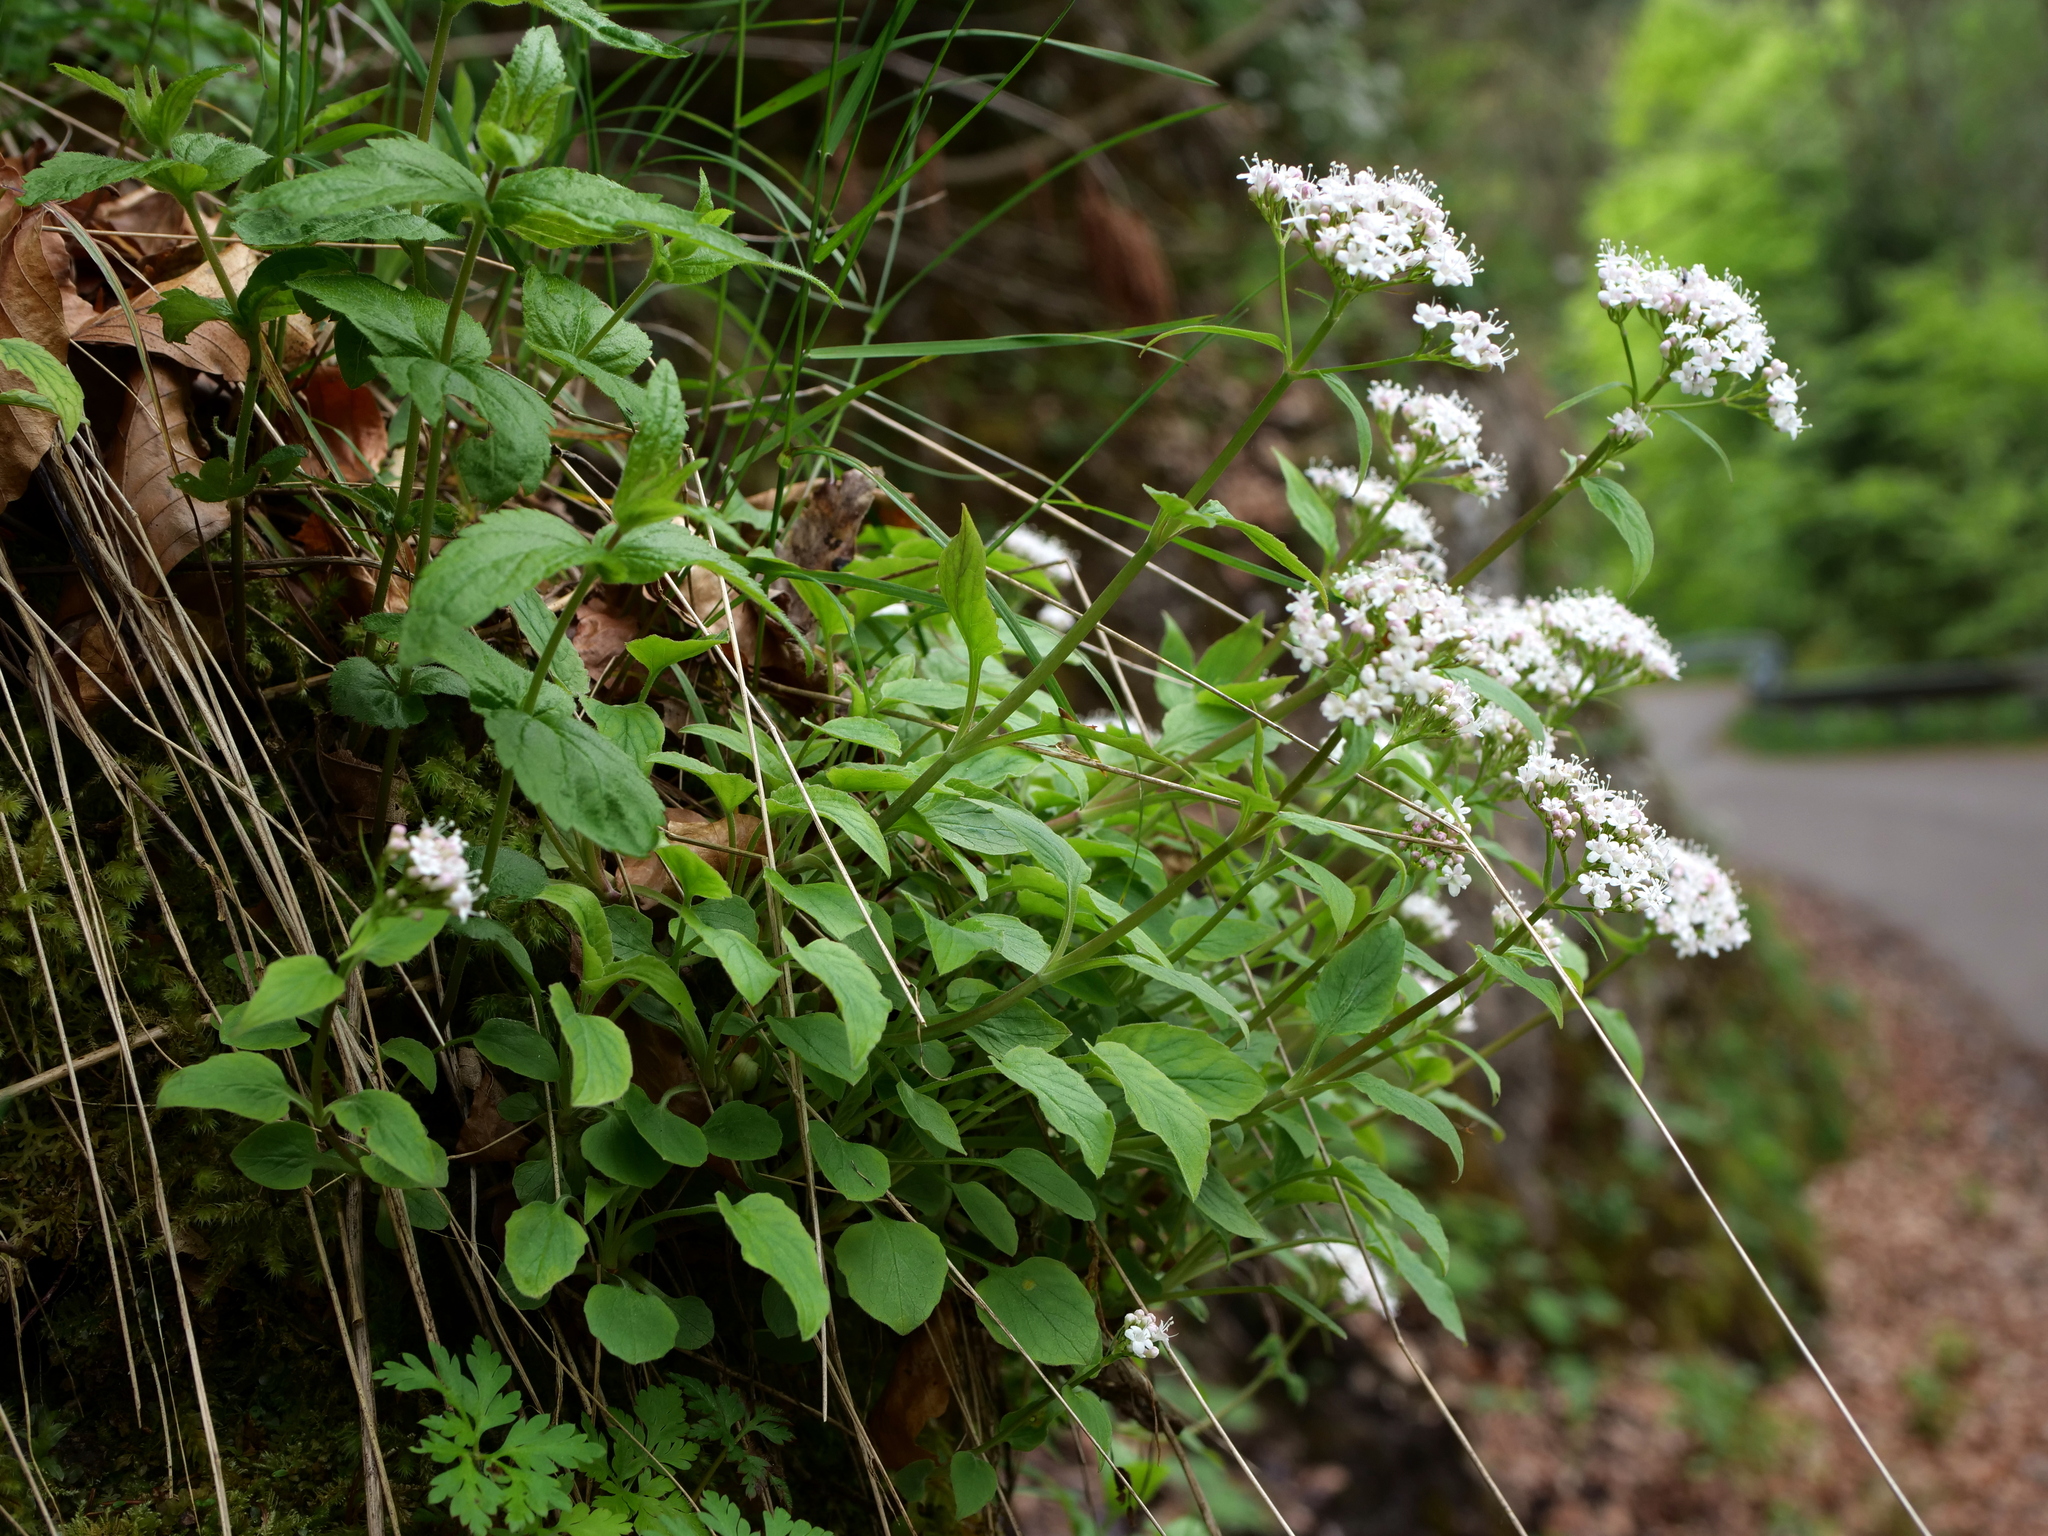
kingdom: Plantae
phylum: Tracheophyta
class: Magnoliopsida
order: Dipsacales
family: Caprifoliaceae
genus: Valeriana
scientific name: Valeriana tripteris
